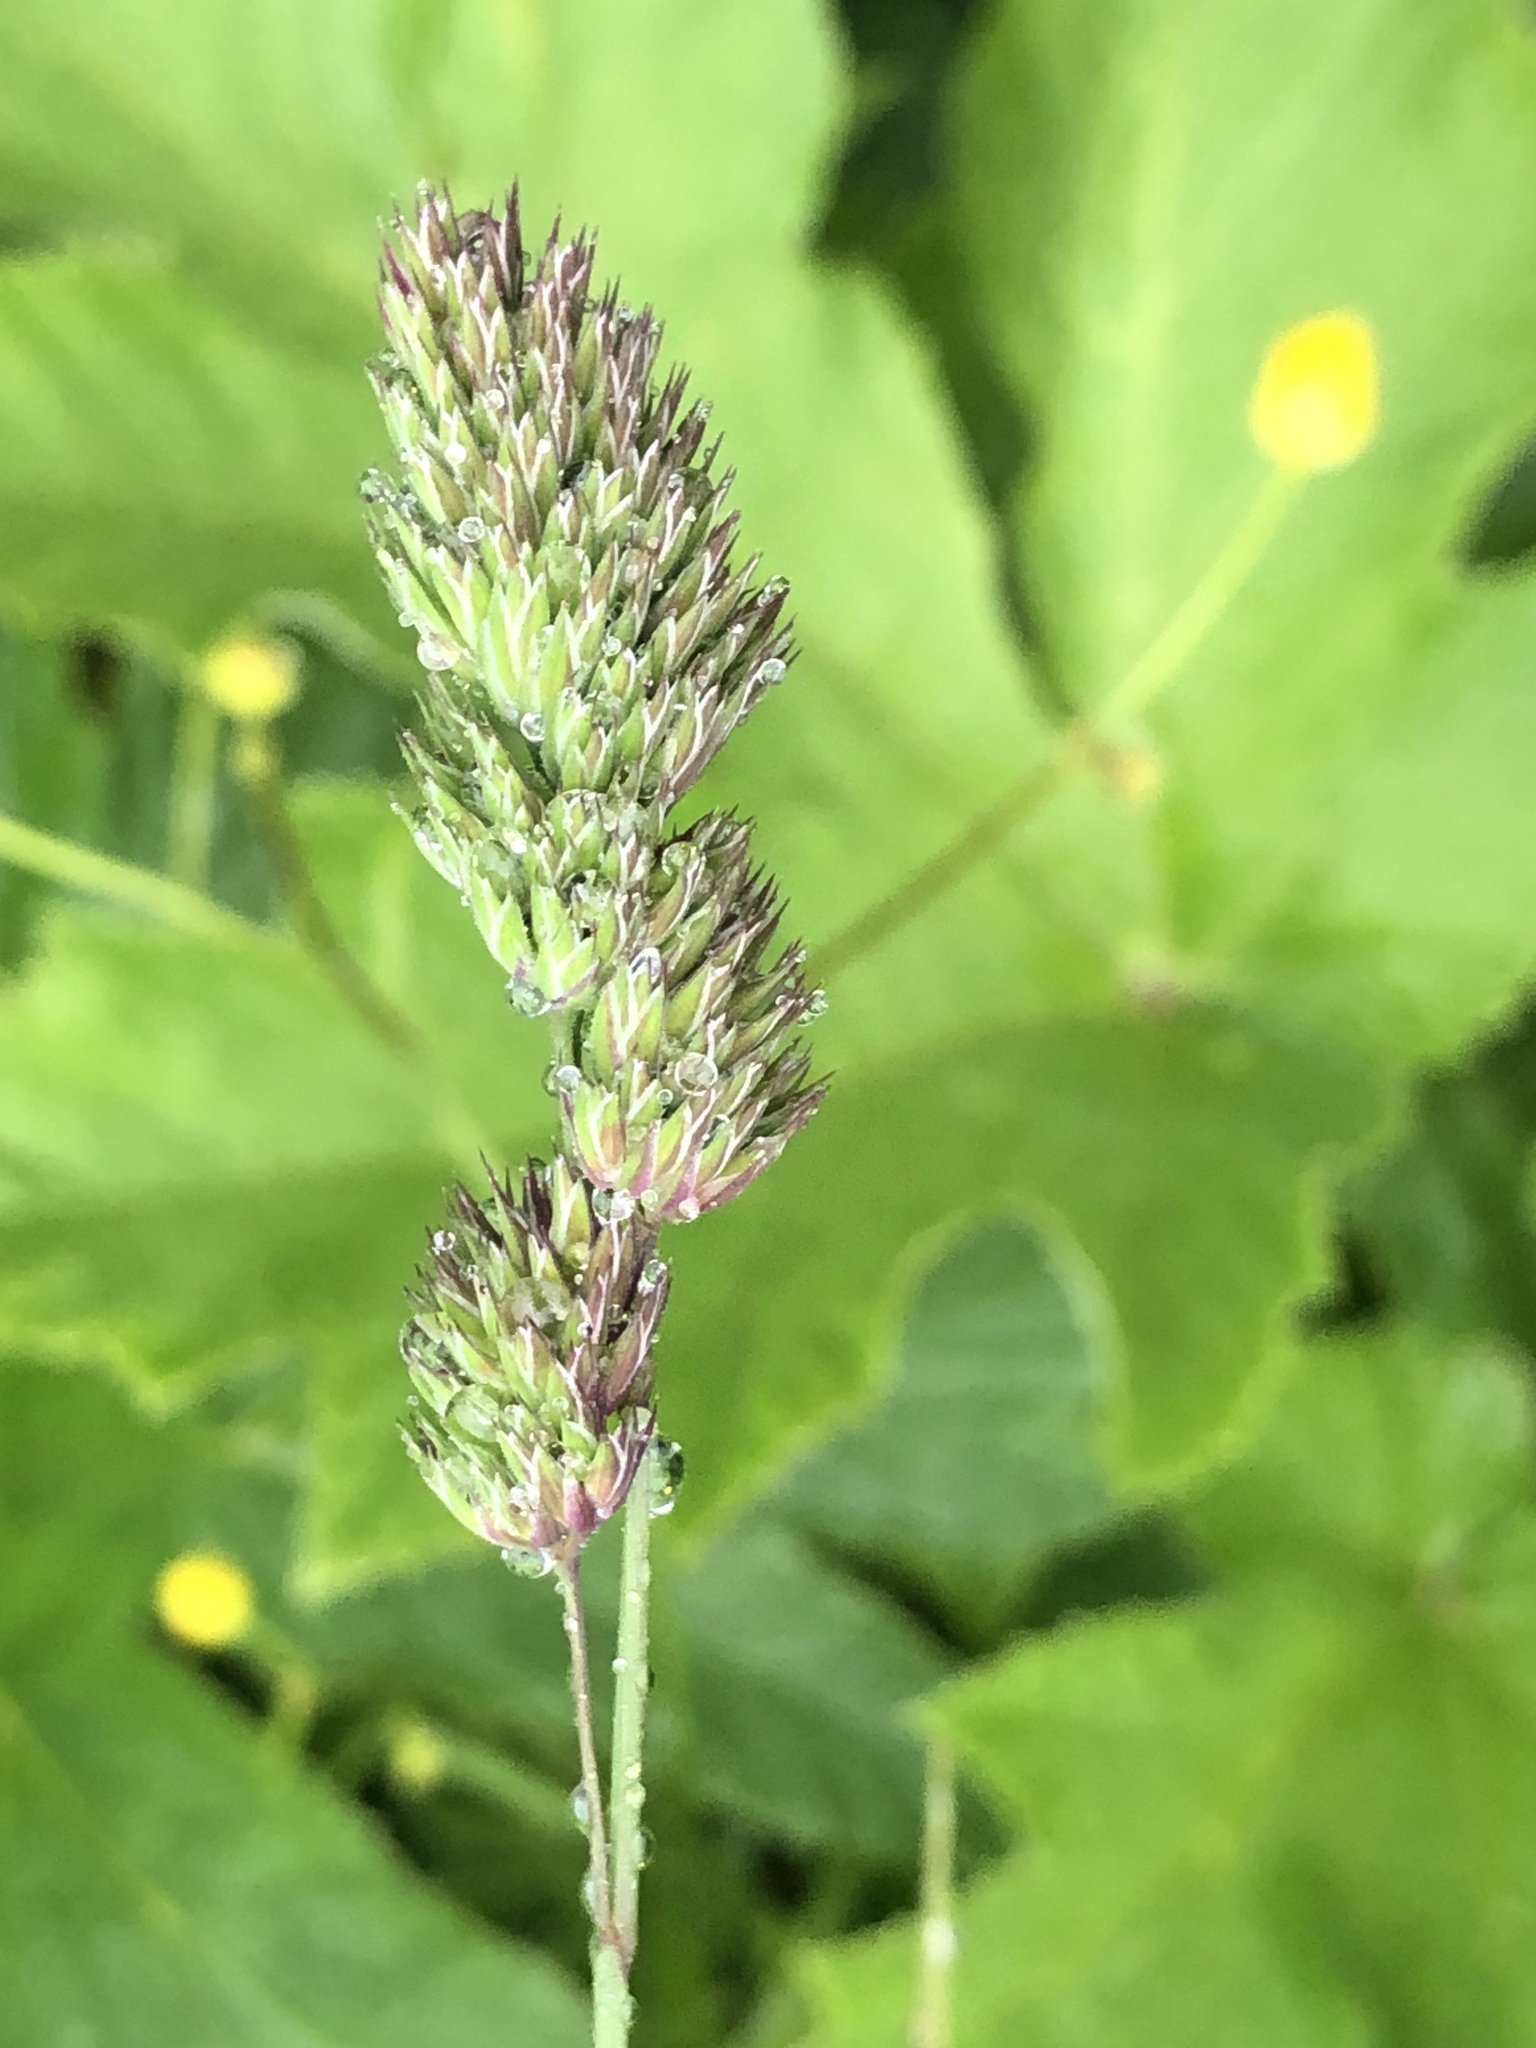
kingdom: Plantae
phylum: Tracheophyta
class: Liliopsida
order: Poales
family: Poaceae
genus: Dactylis
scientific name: Dactylis glomerata
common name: Orchardgrass
